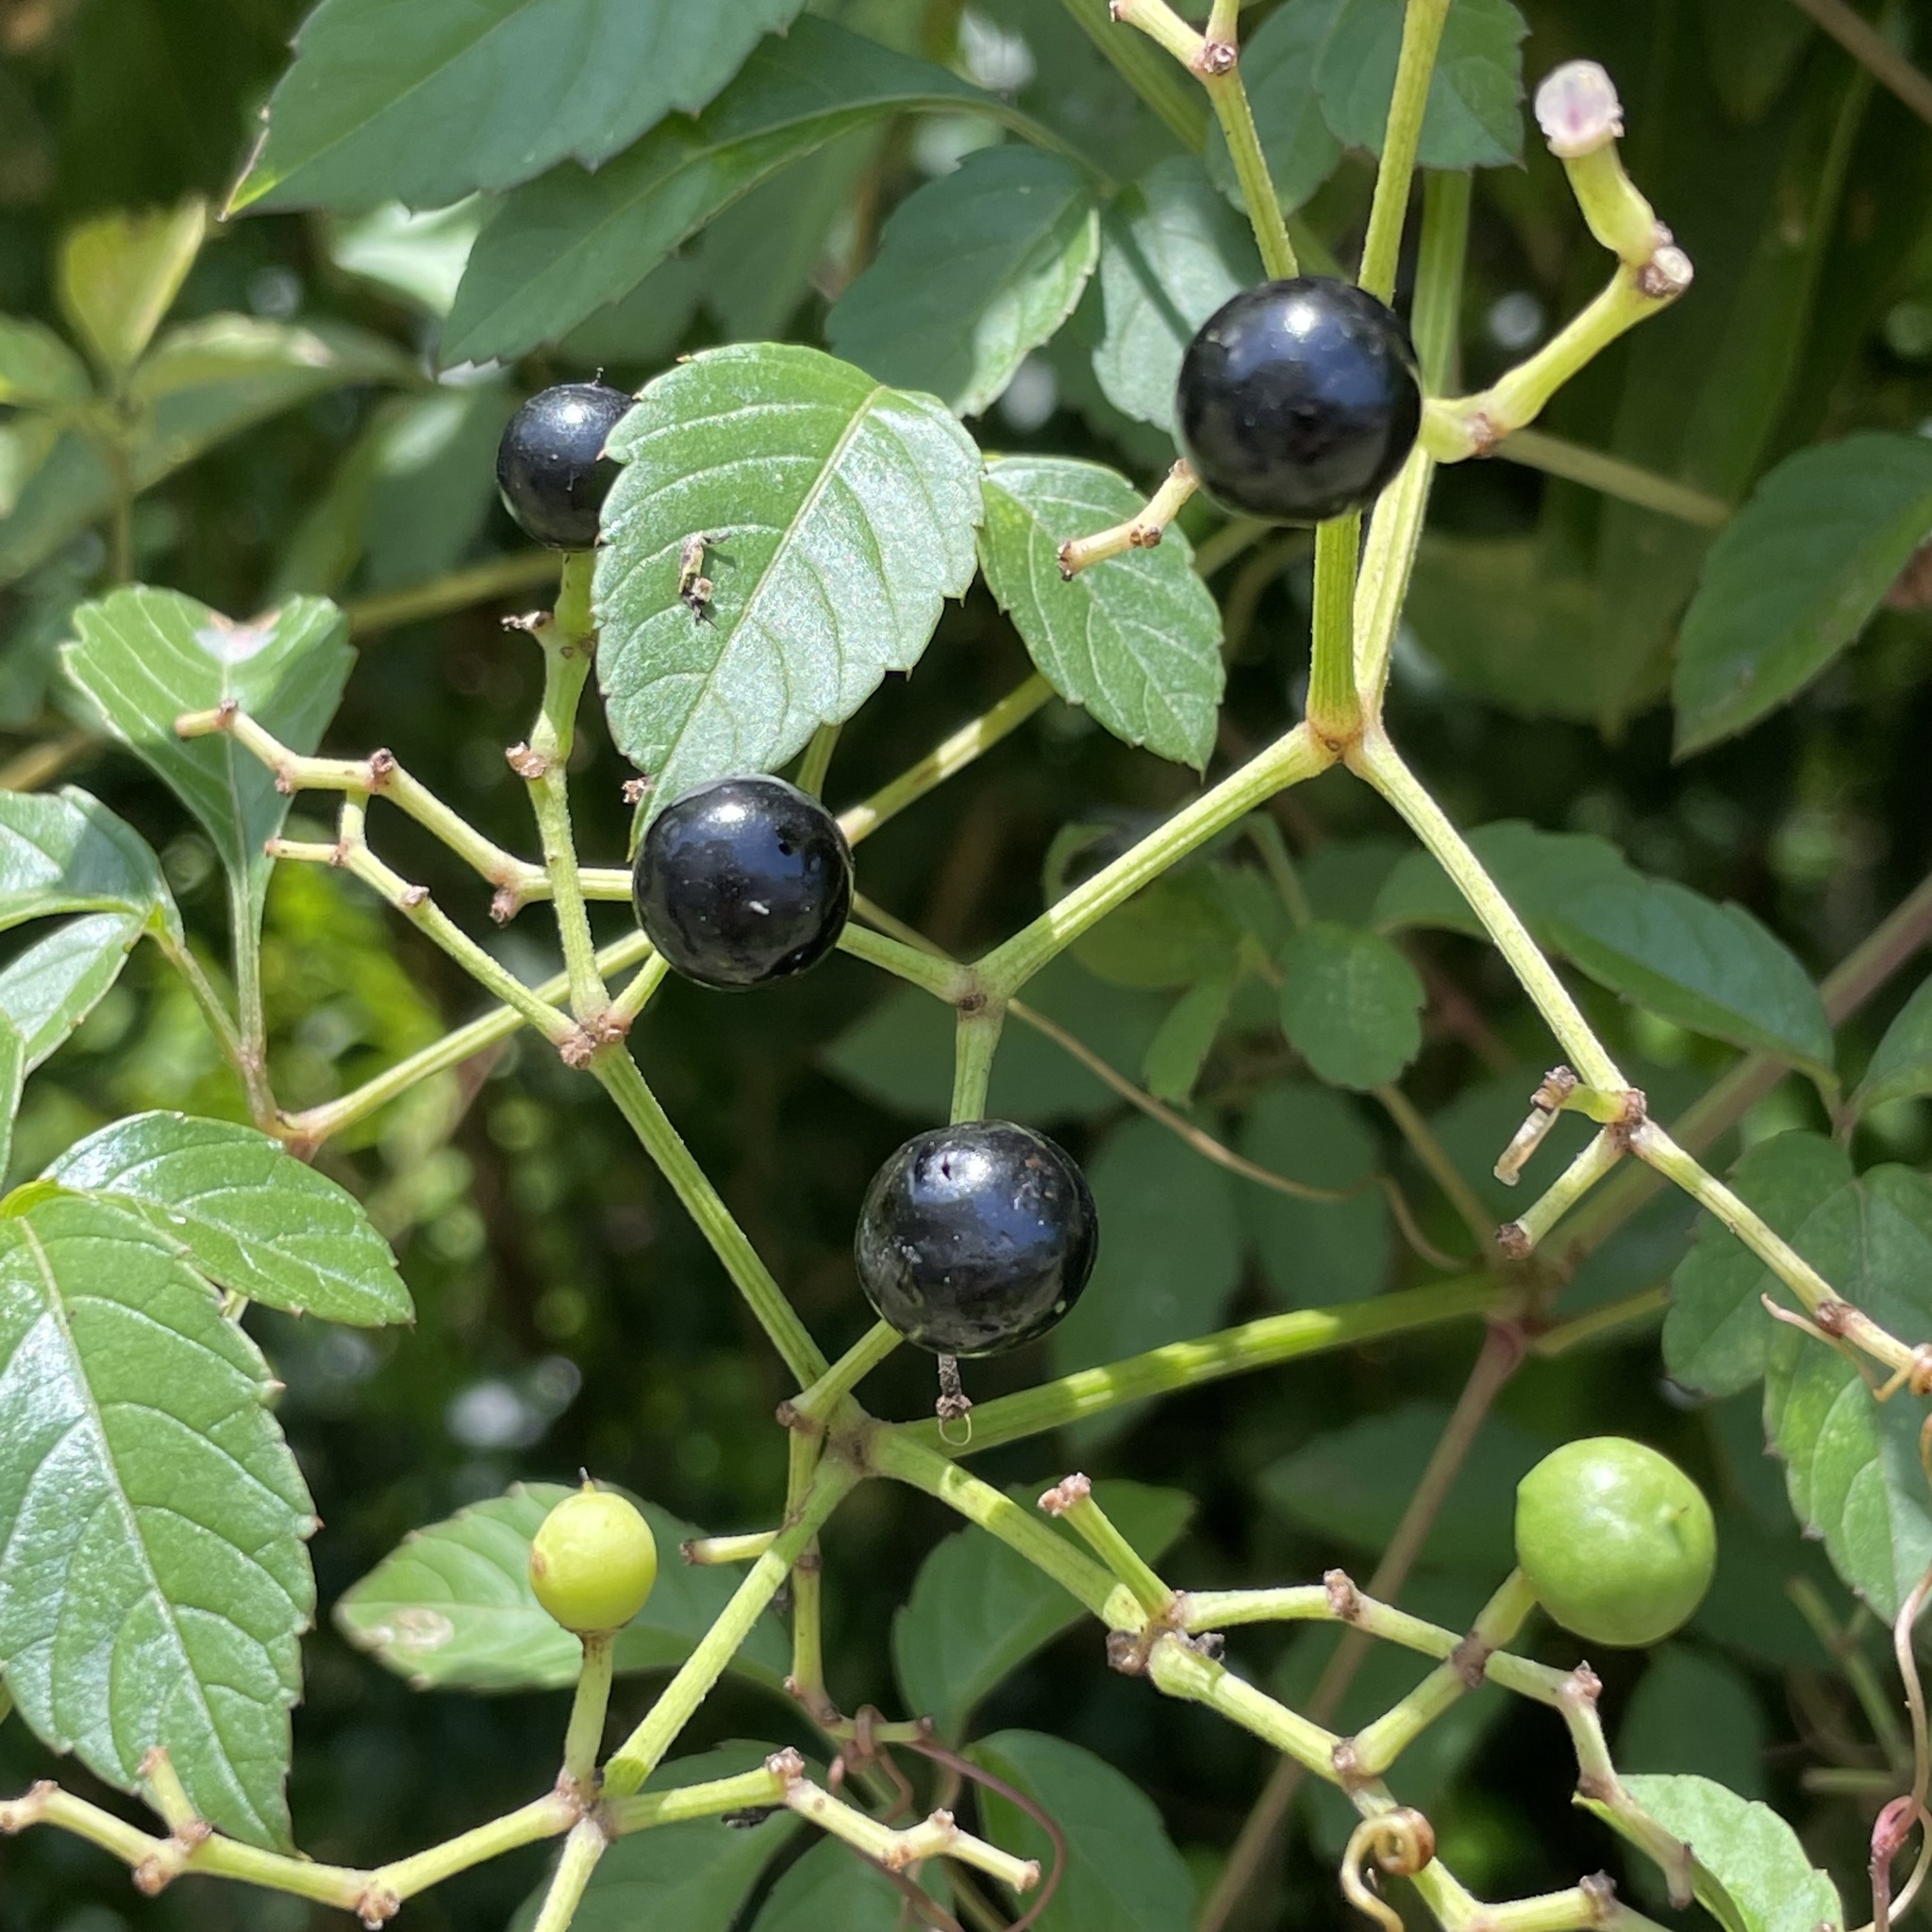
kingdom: Plantae
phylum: Tracheophyta
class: Magnoliopsida
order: Vitales
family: Vitaceae
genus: Causonis
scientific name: Causonis japonica
